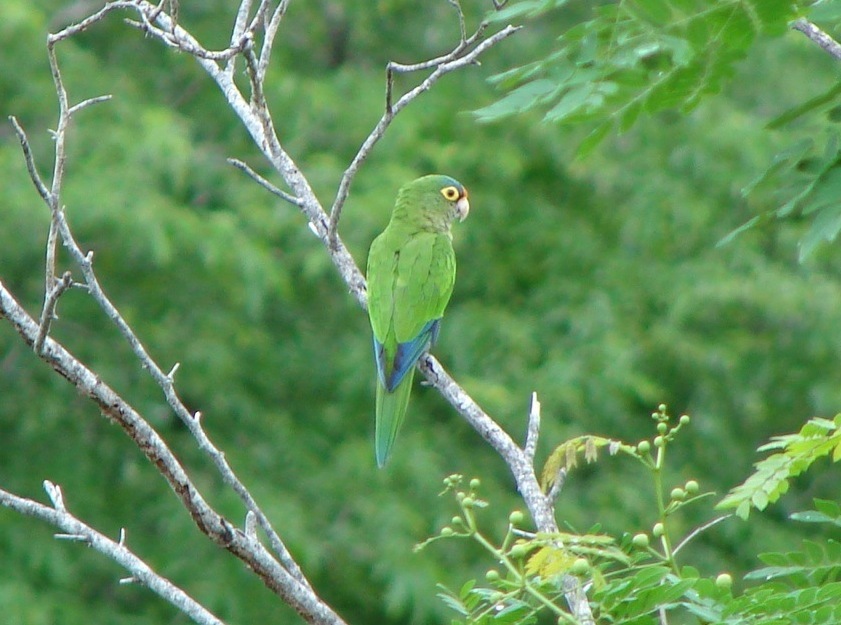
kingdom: Animalia
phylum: Chordata
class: Aves
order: Psittaciformes
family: Psittacidae
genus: Aratinga
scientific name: Aratinga canicularis
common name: Orange-fronted parakeet
